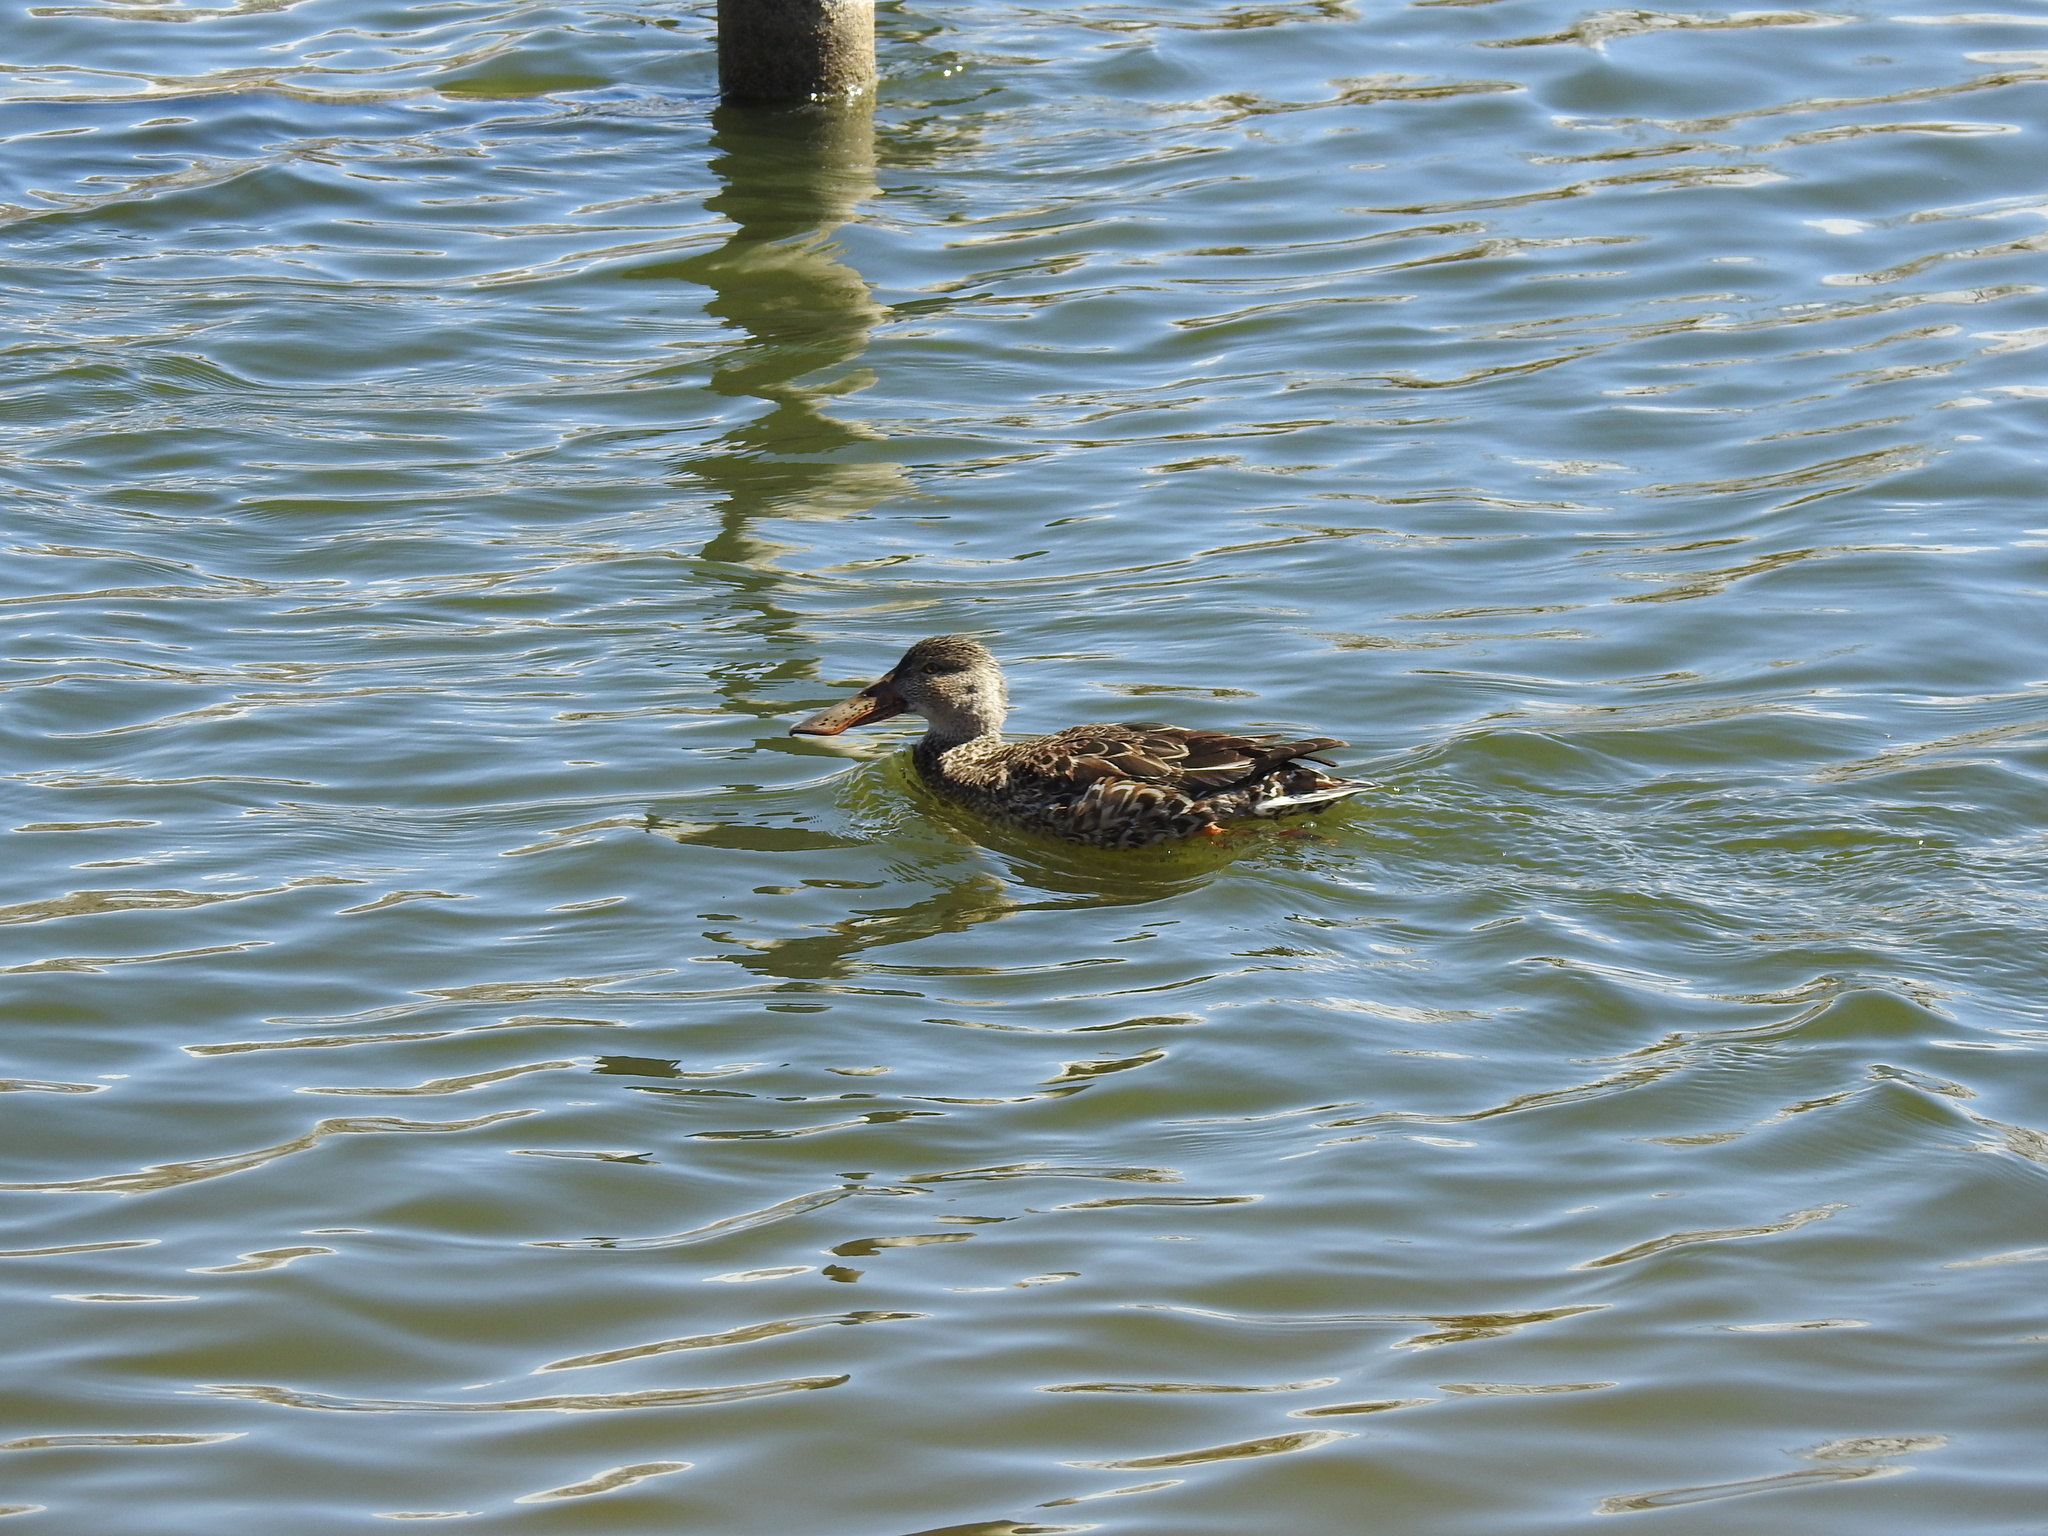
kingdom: Animalia
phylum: Chordata
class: Aves
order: Anseriformes
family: Anatidae
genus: Spatula
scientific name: Spatula clypeata
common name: Northern shoveler
